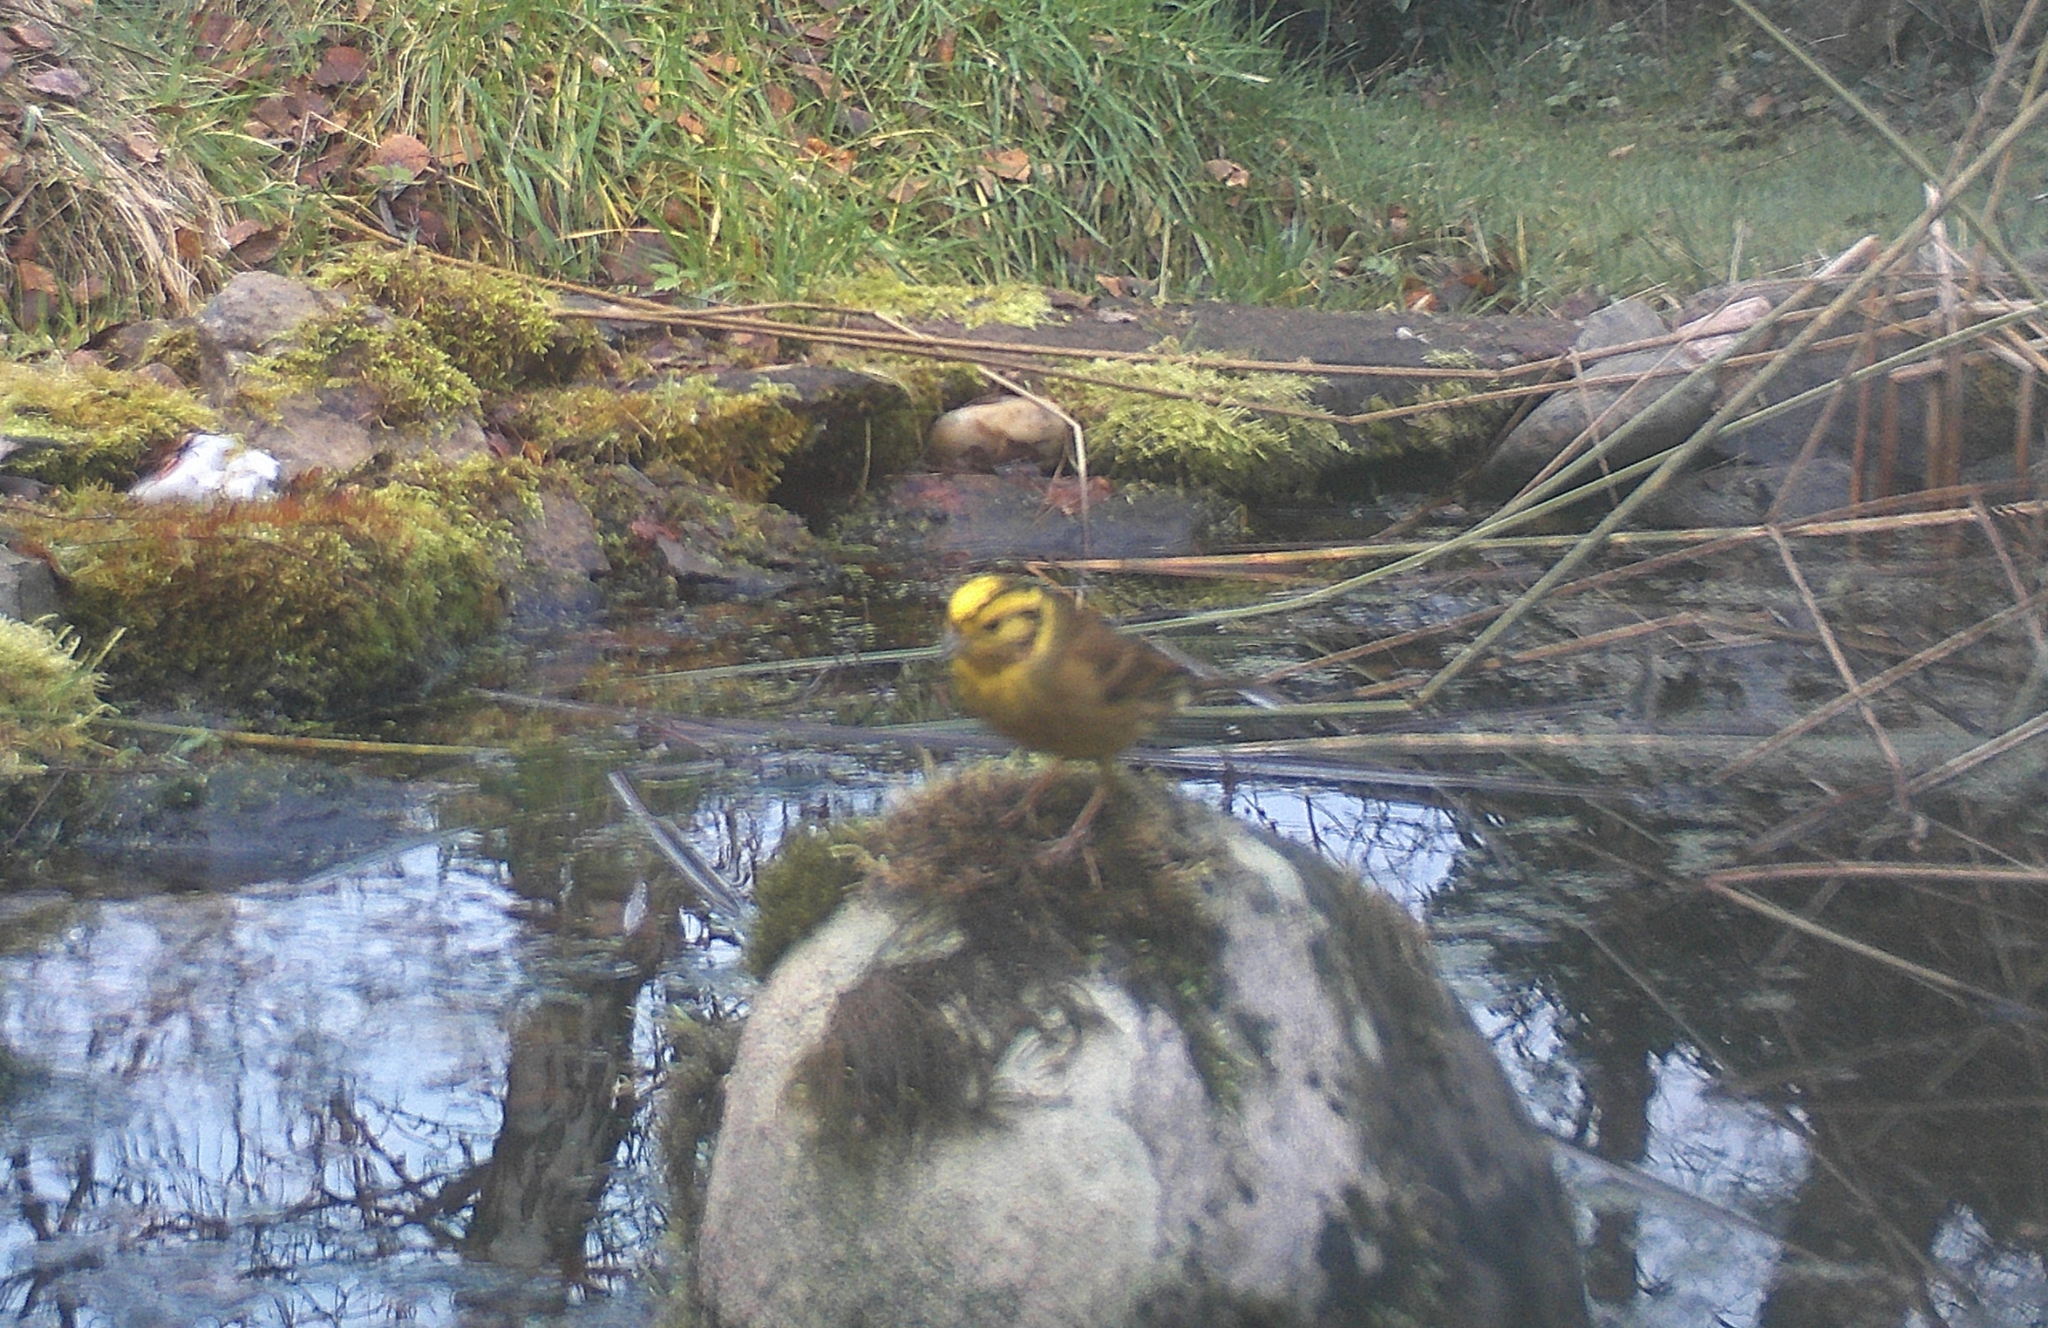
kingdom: Animalia
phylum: Chordata
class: Aves
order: Passeriformes
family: Emberizidae
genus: Emberiza
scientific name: Emberiza citrinella
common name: Yellowhammer
